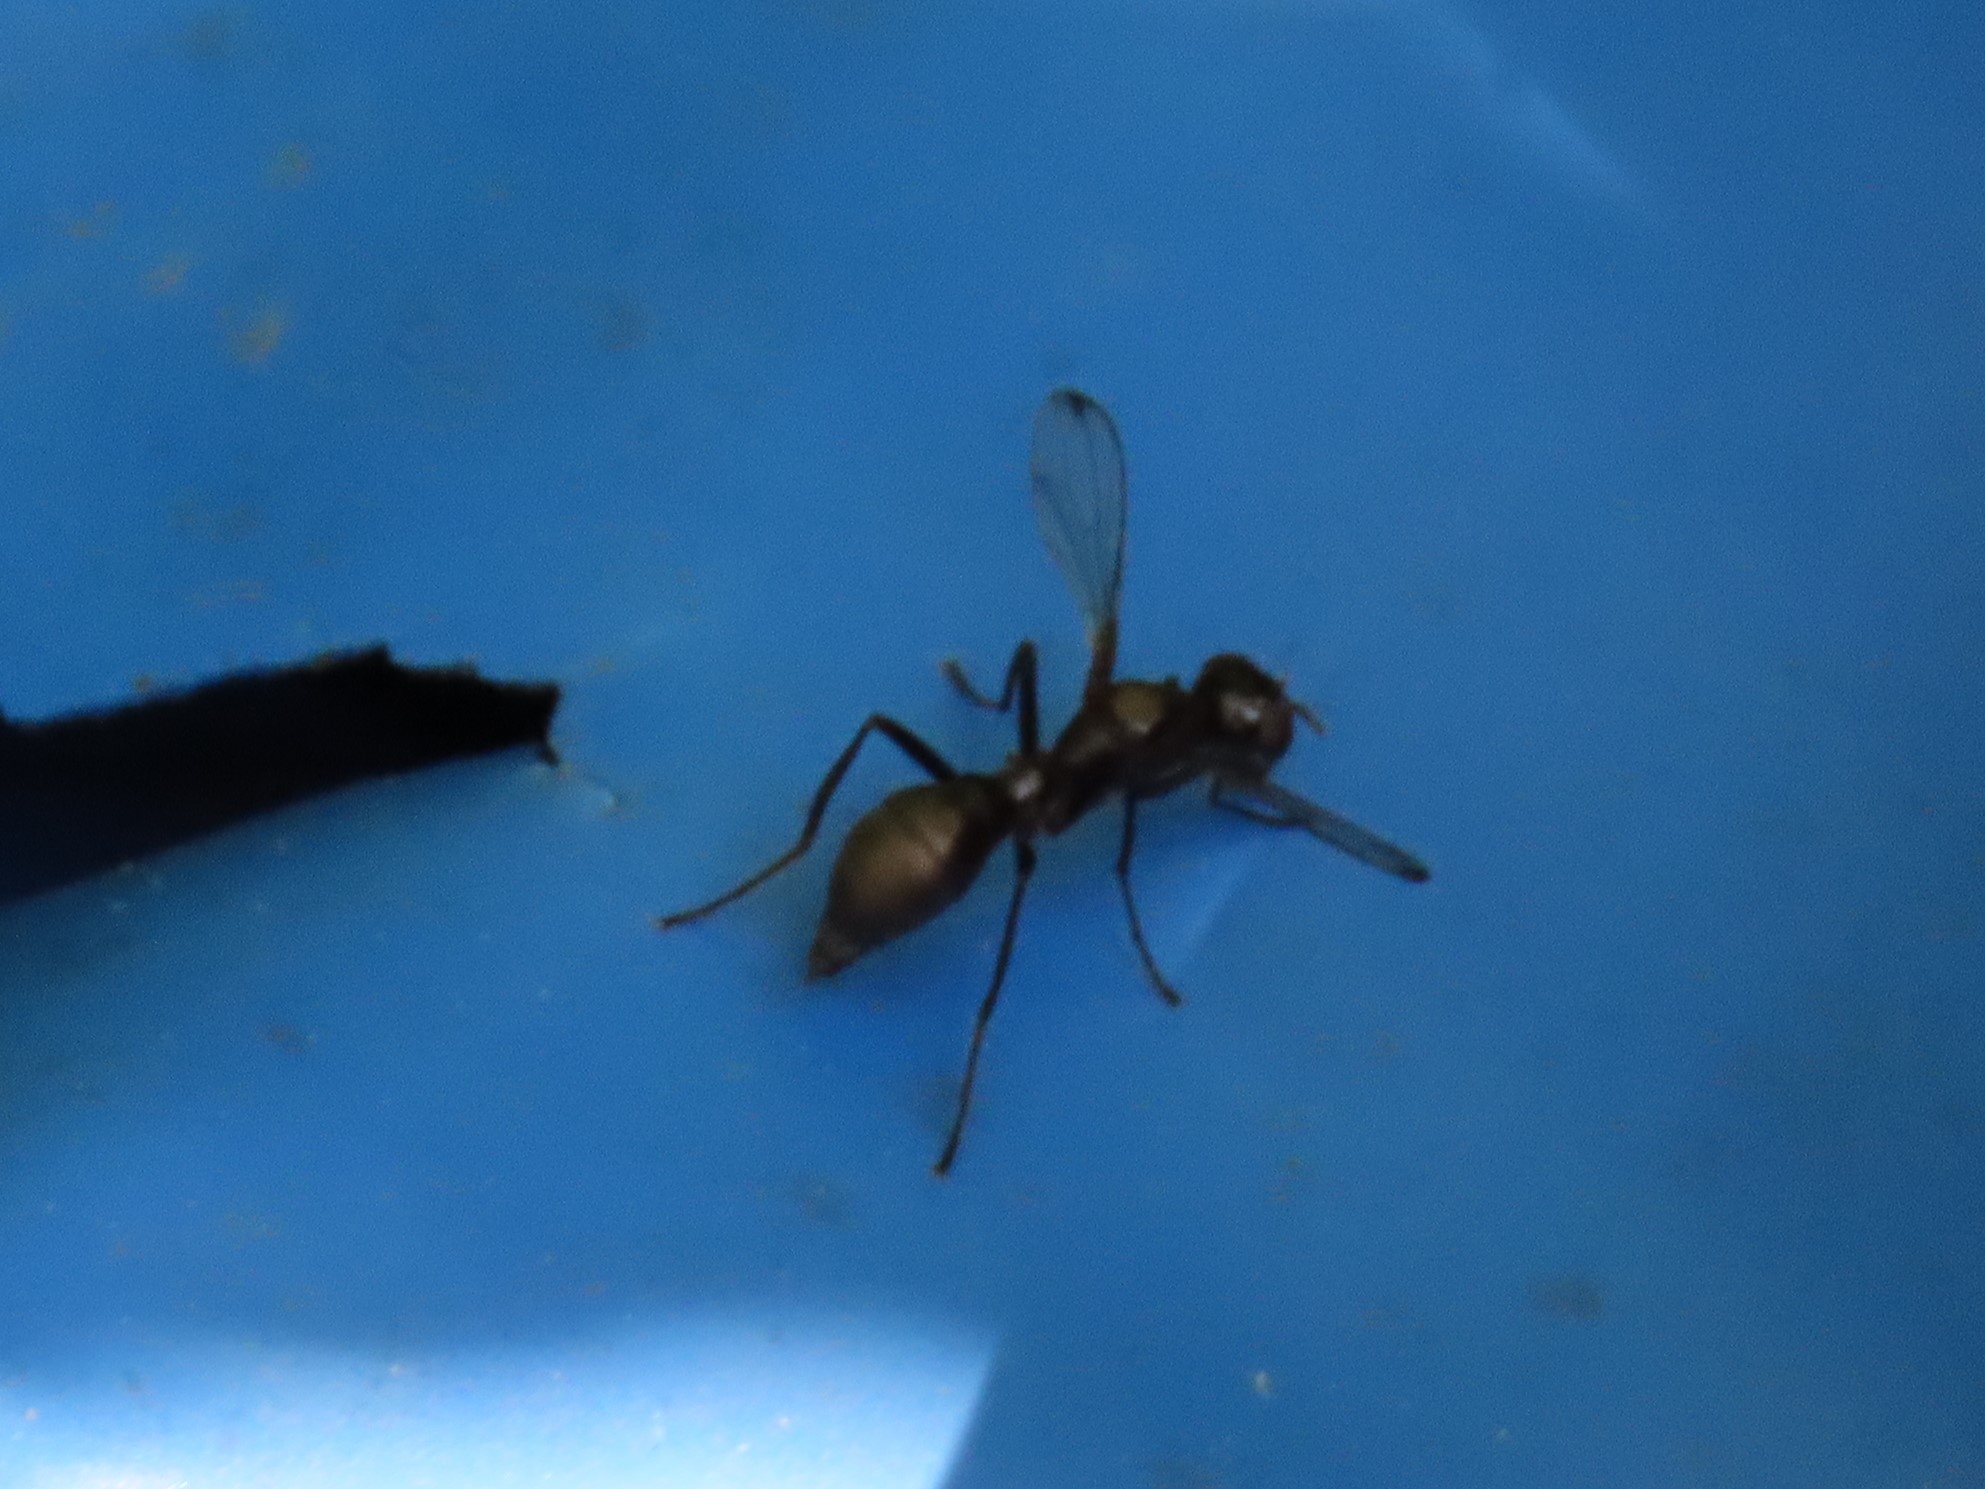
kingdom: Animalia
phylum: Arthropoda
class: Insecta
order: Diptera
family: Ulidiidae
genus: Myrmecothea
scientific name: Myrmecothea myrmecoides
